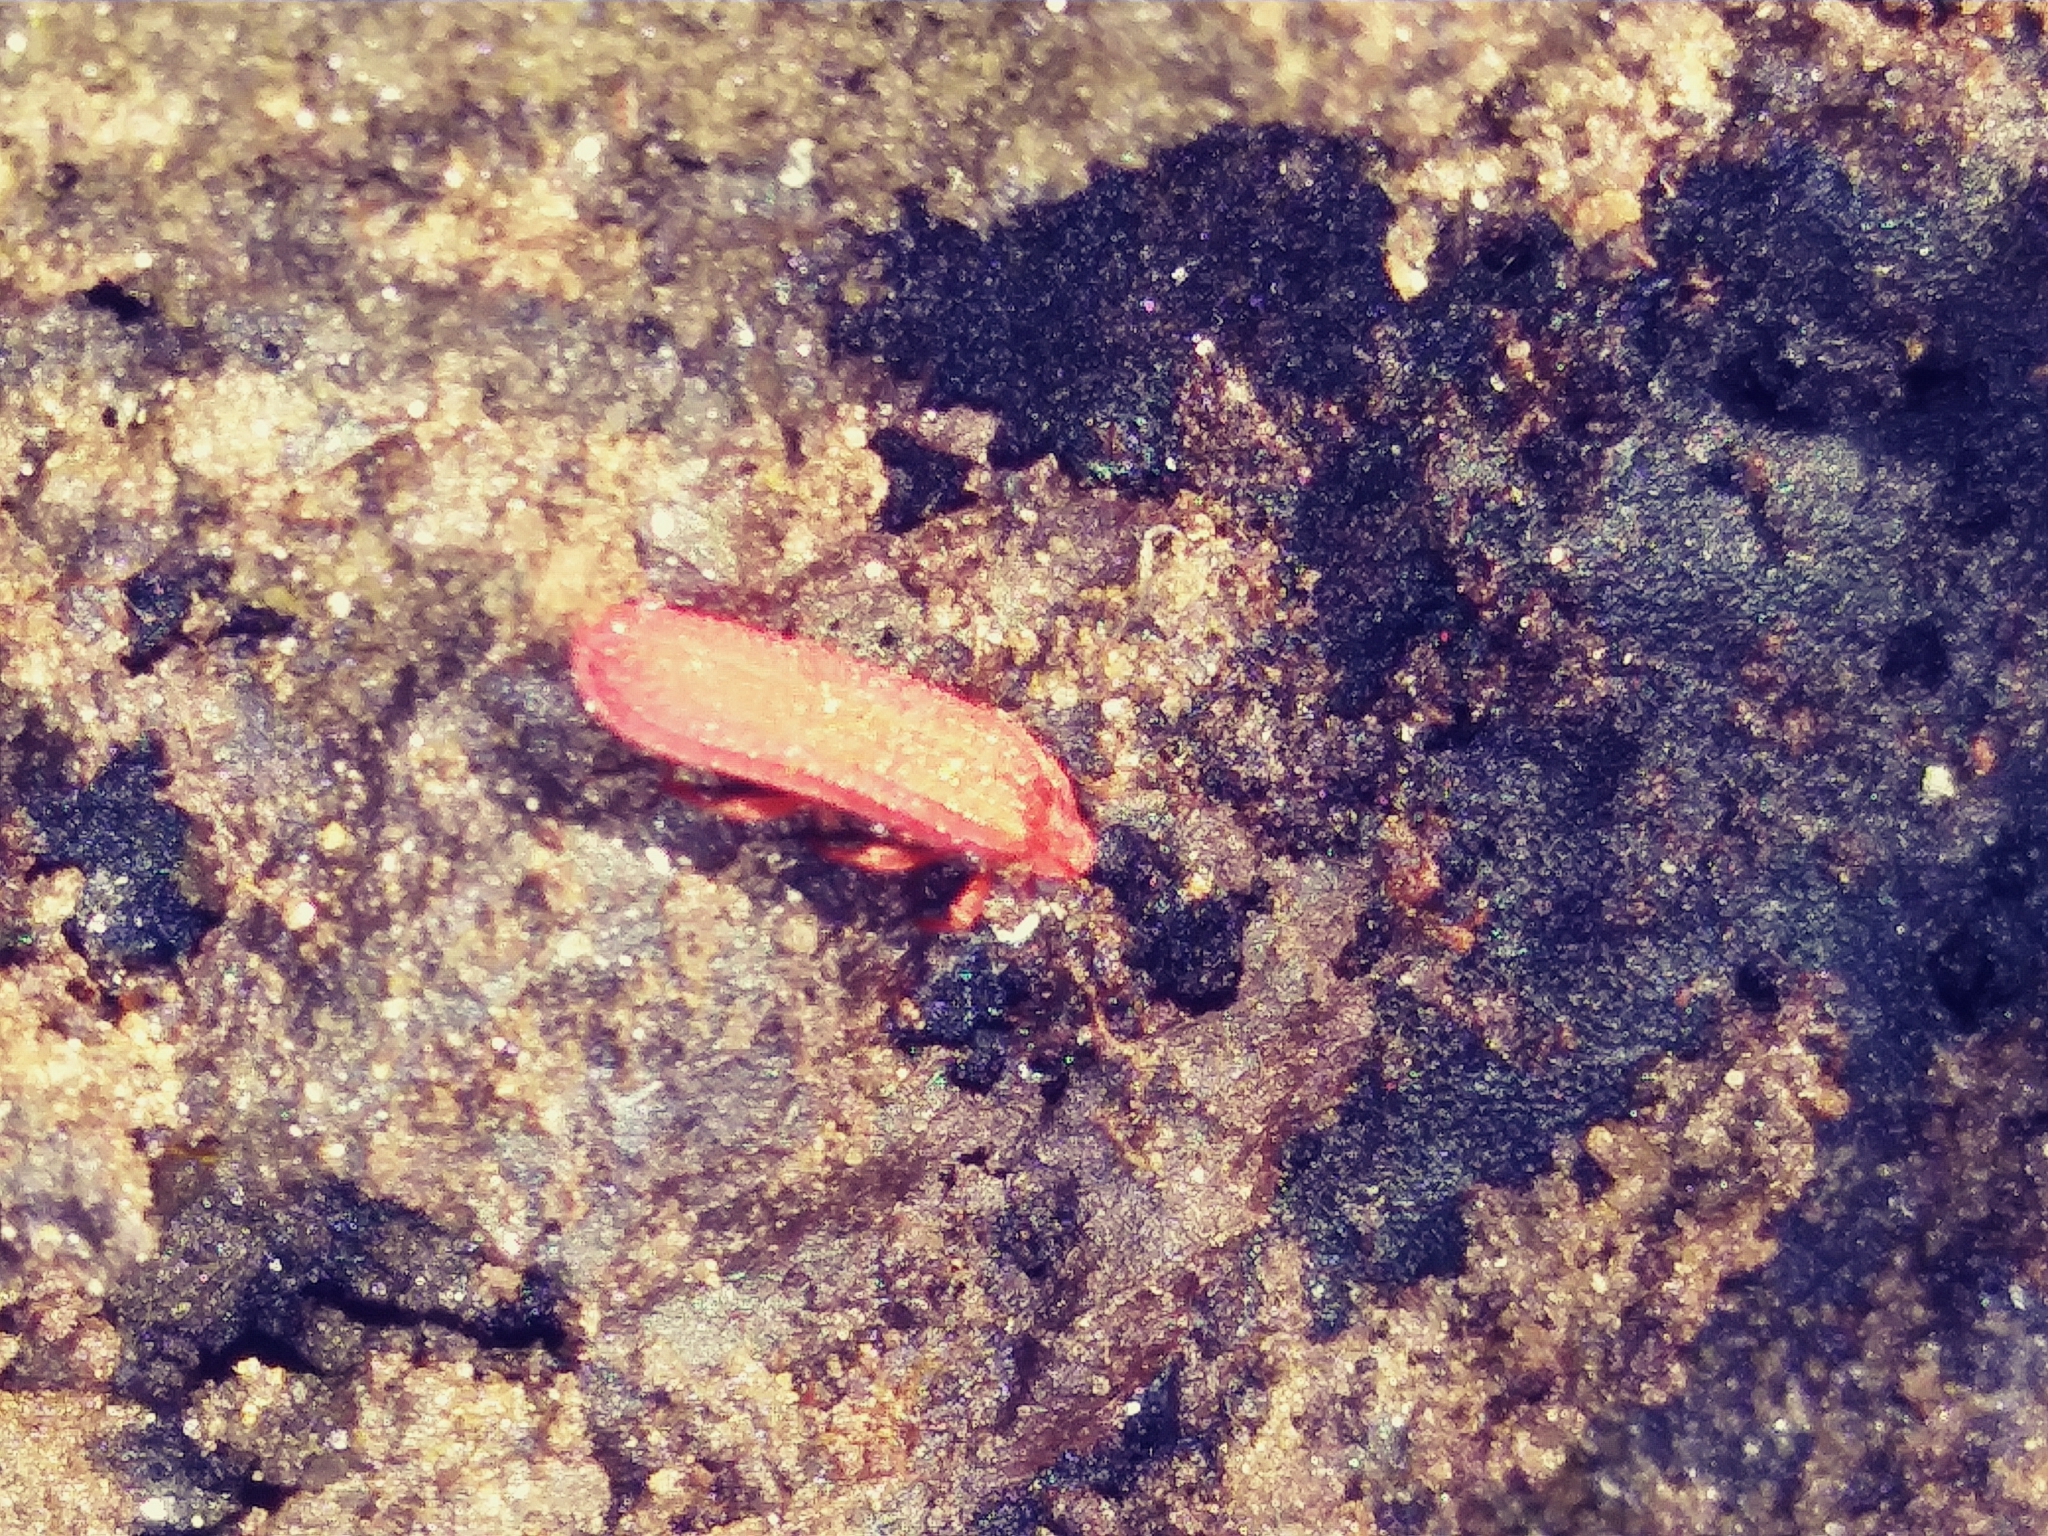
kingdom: Animalia
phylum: Arthropoda
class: Insecta
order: Coleoptera
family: Lycidae
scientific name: Lycidae
